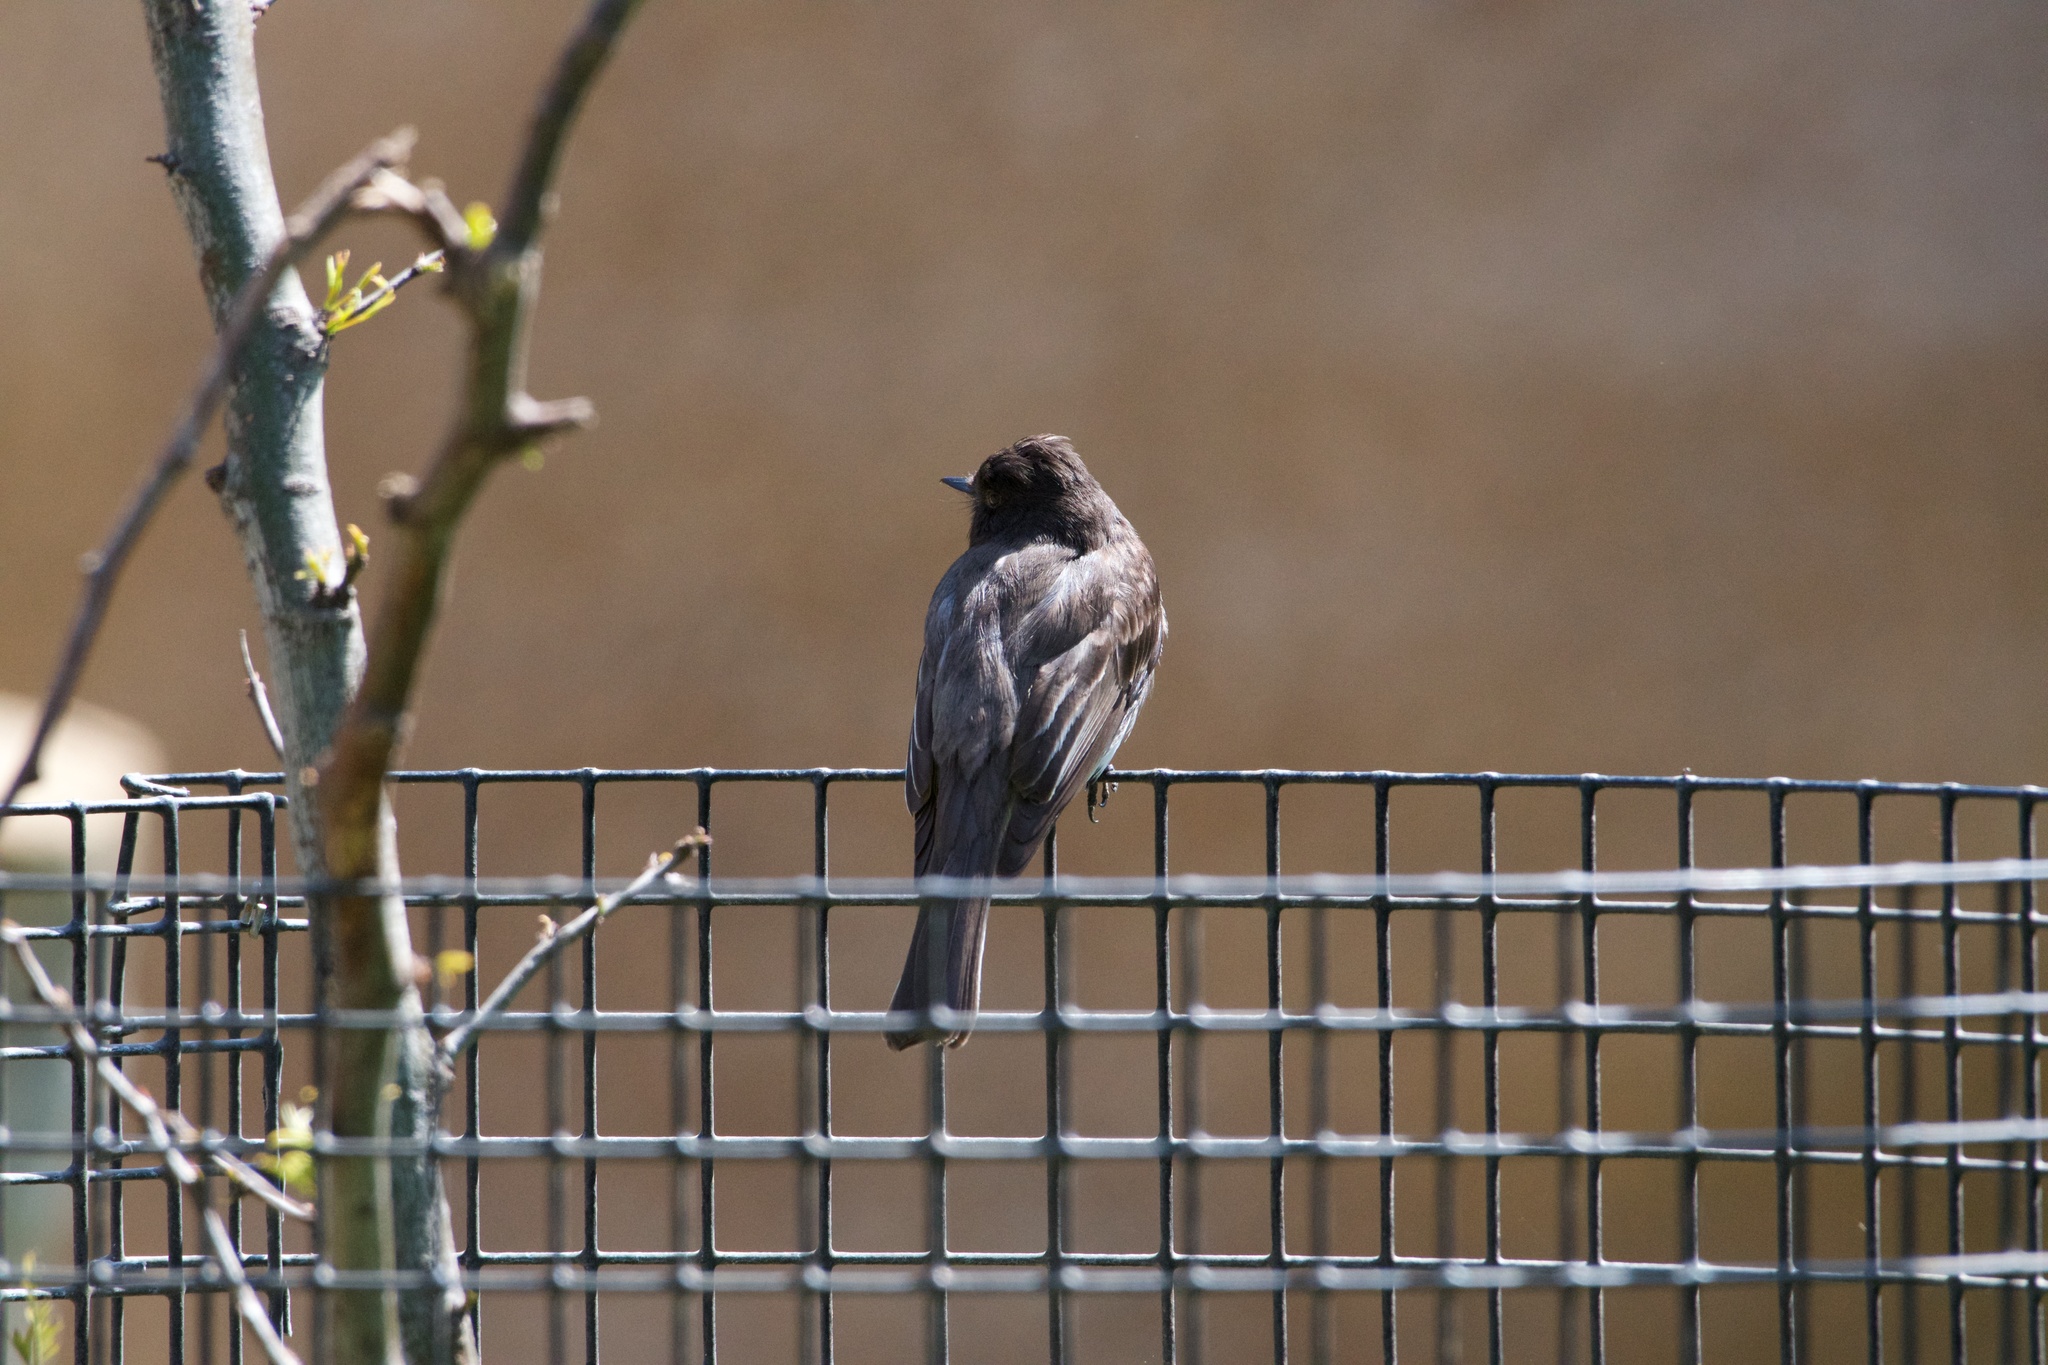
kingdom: Animalia
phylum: Chordata
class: Aves
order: Passeriformes
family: Tyrannidae
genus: Sayornis
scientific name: Sayornis nigricans
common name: Black phoebe
